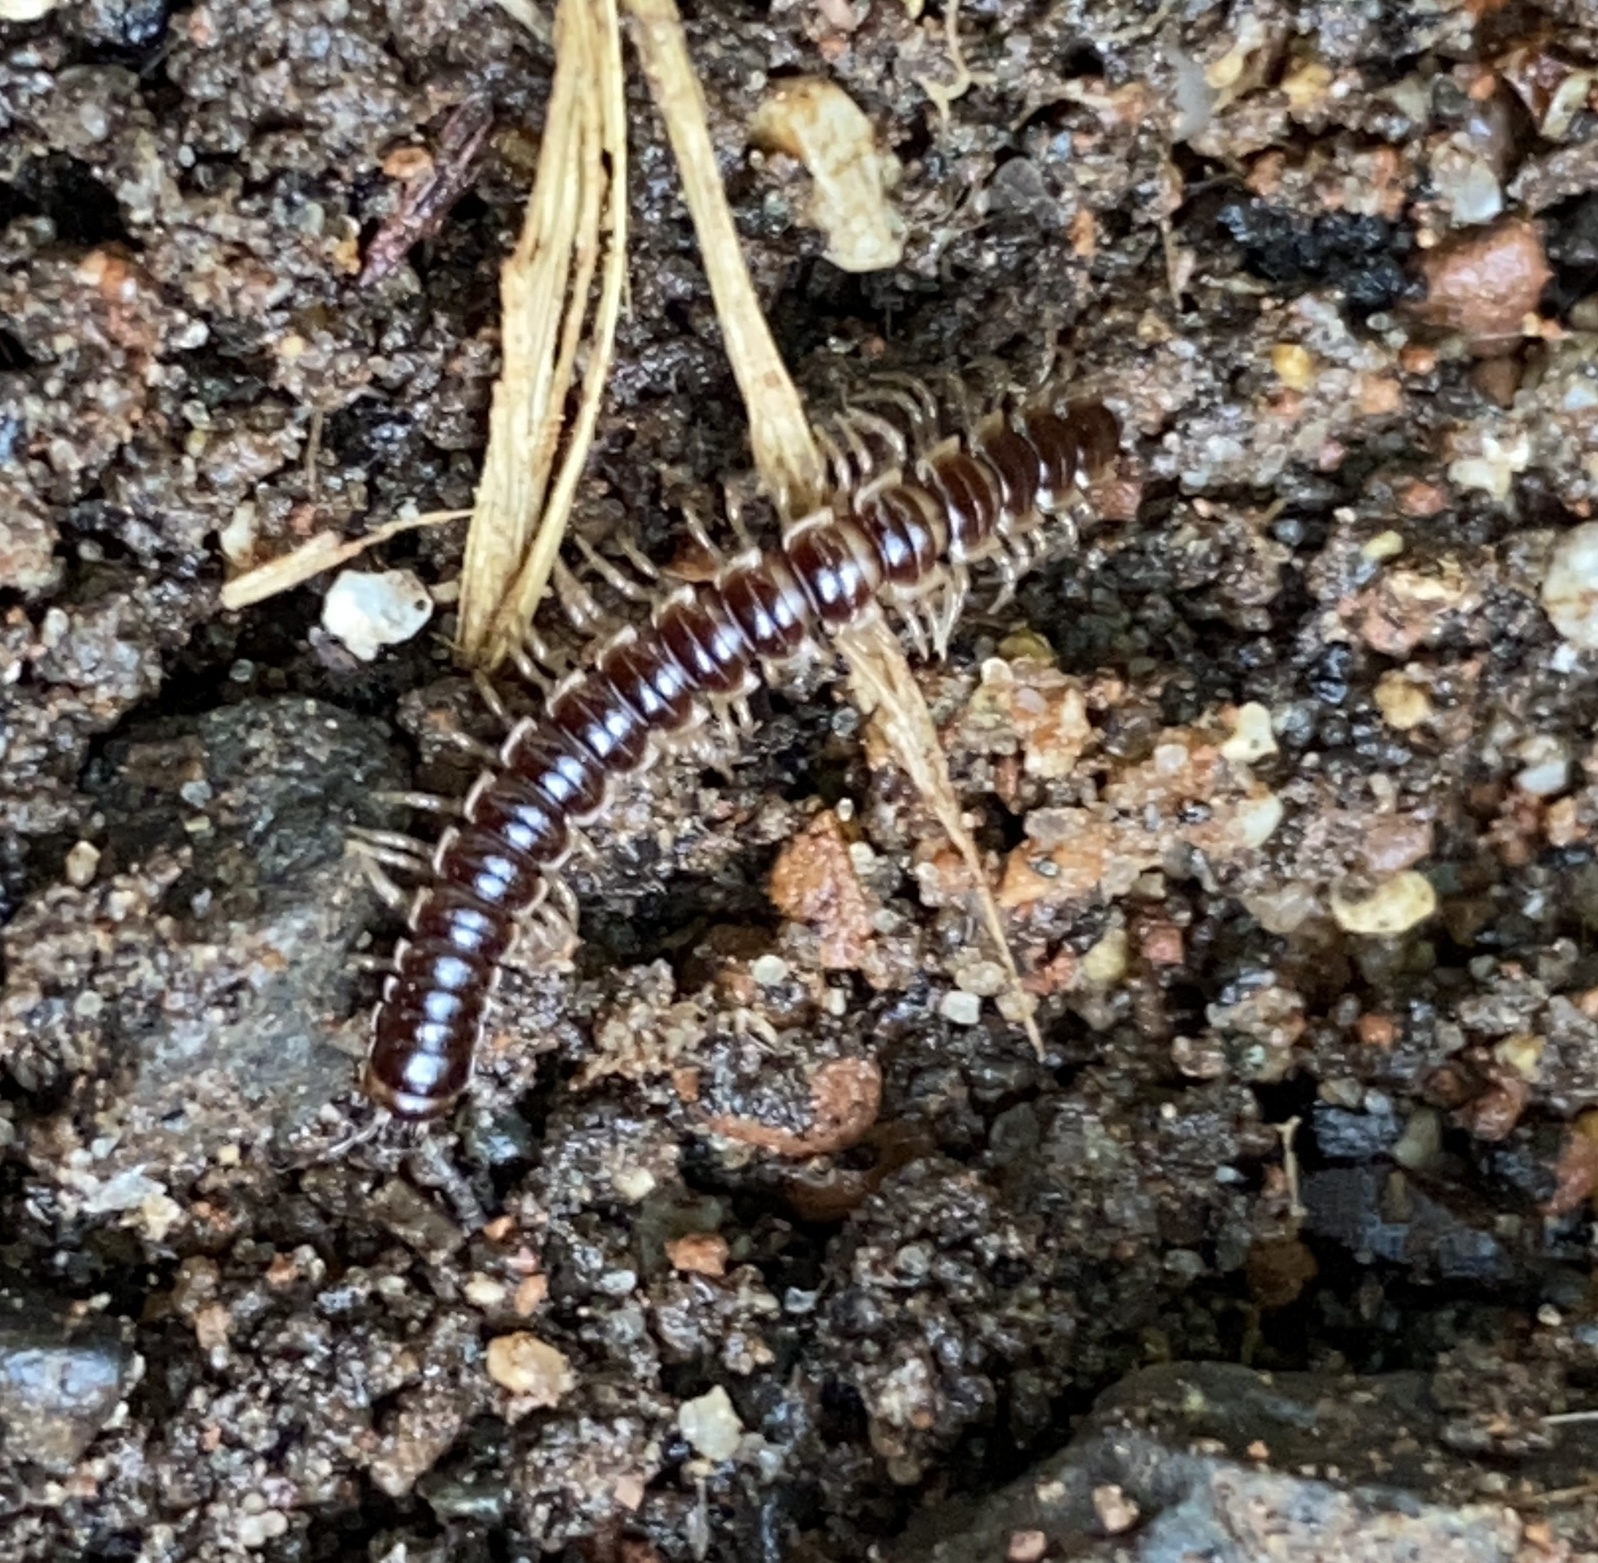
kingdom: Animalia
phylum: Arthropoda
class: Diplopoda
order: Polydesmida
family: Paradoxosomatidae
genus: Oxidus
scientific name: Oxidus gracilis
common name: Greenhouse millipede
